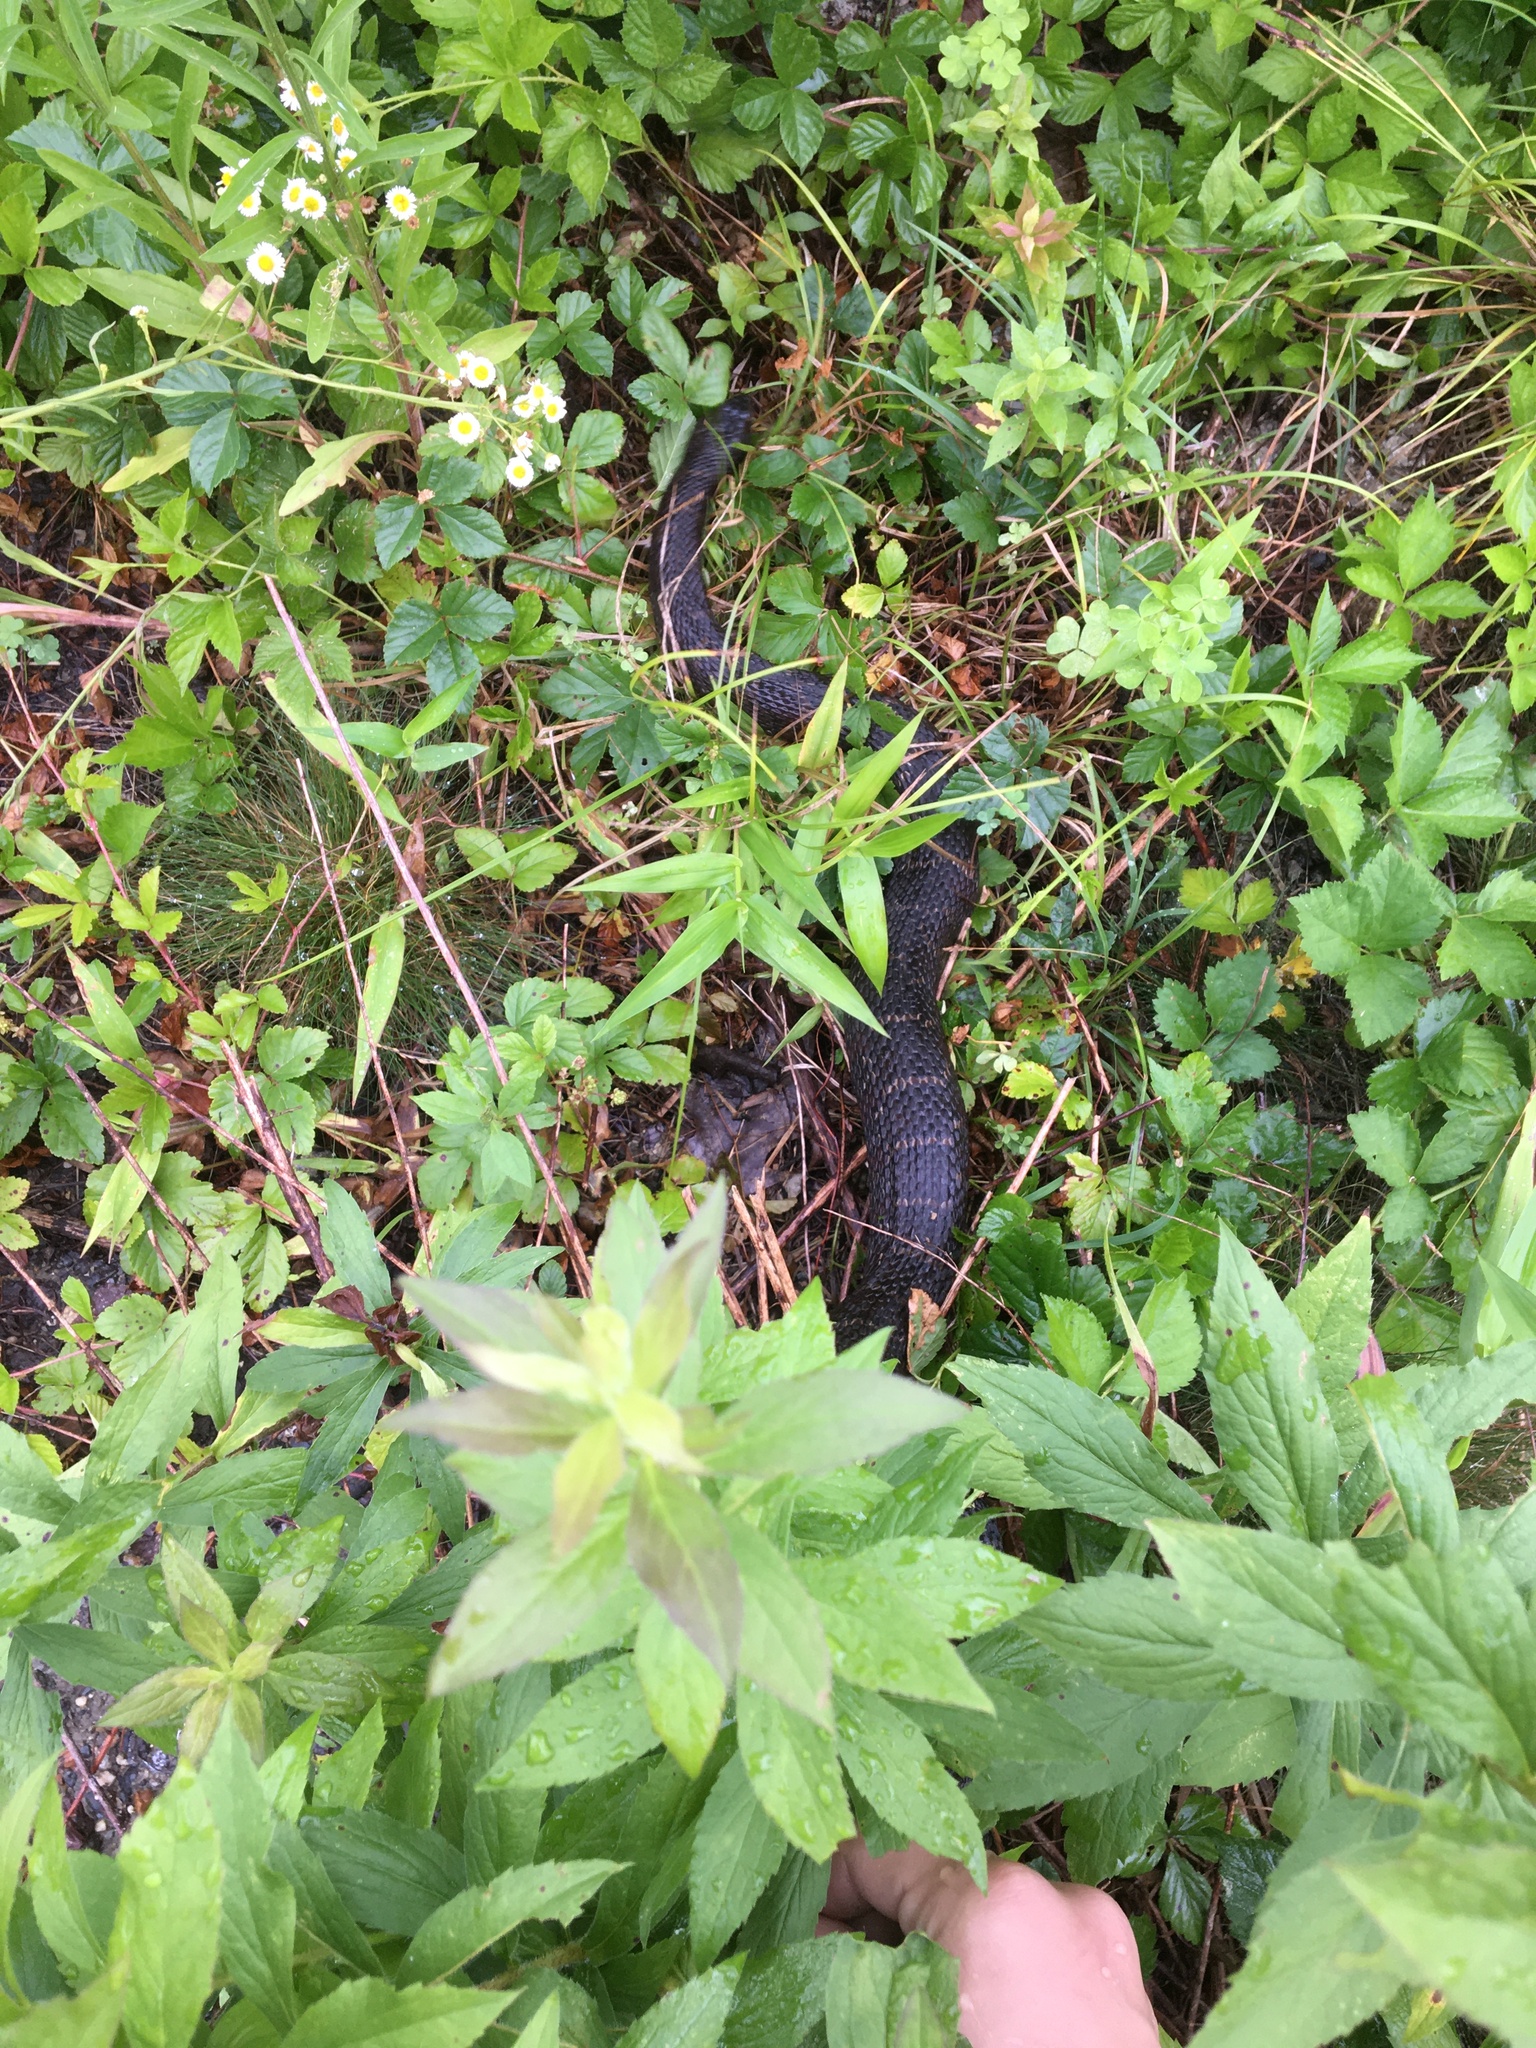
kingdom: Animalia
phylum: Chordata
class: Squamata
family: Colubridae
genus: Nerodia
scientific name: Nerodia sipedon
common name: Northern water snake
